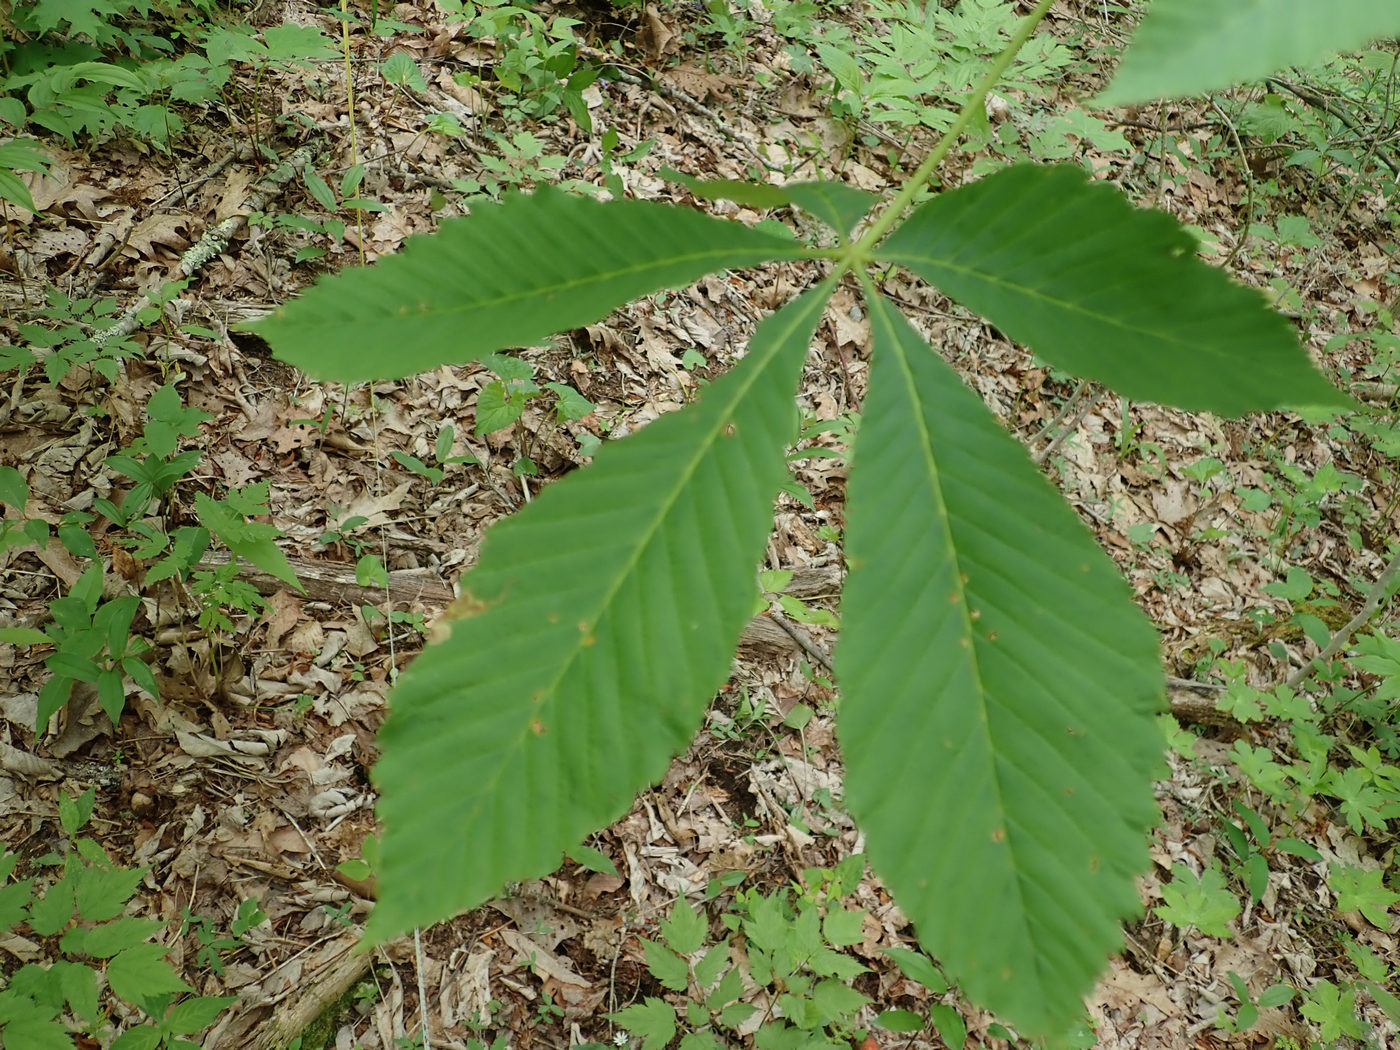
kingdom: Animalia
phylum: Arthropoda
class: Insecta
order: Diptera
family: Agromyzidae
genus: Phytomyza
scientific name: Phytomyza aesculi
